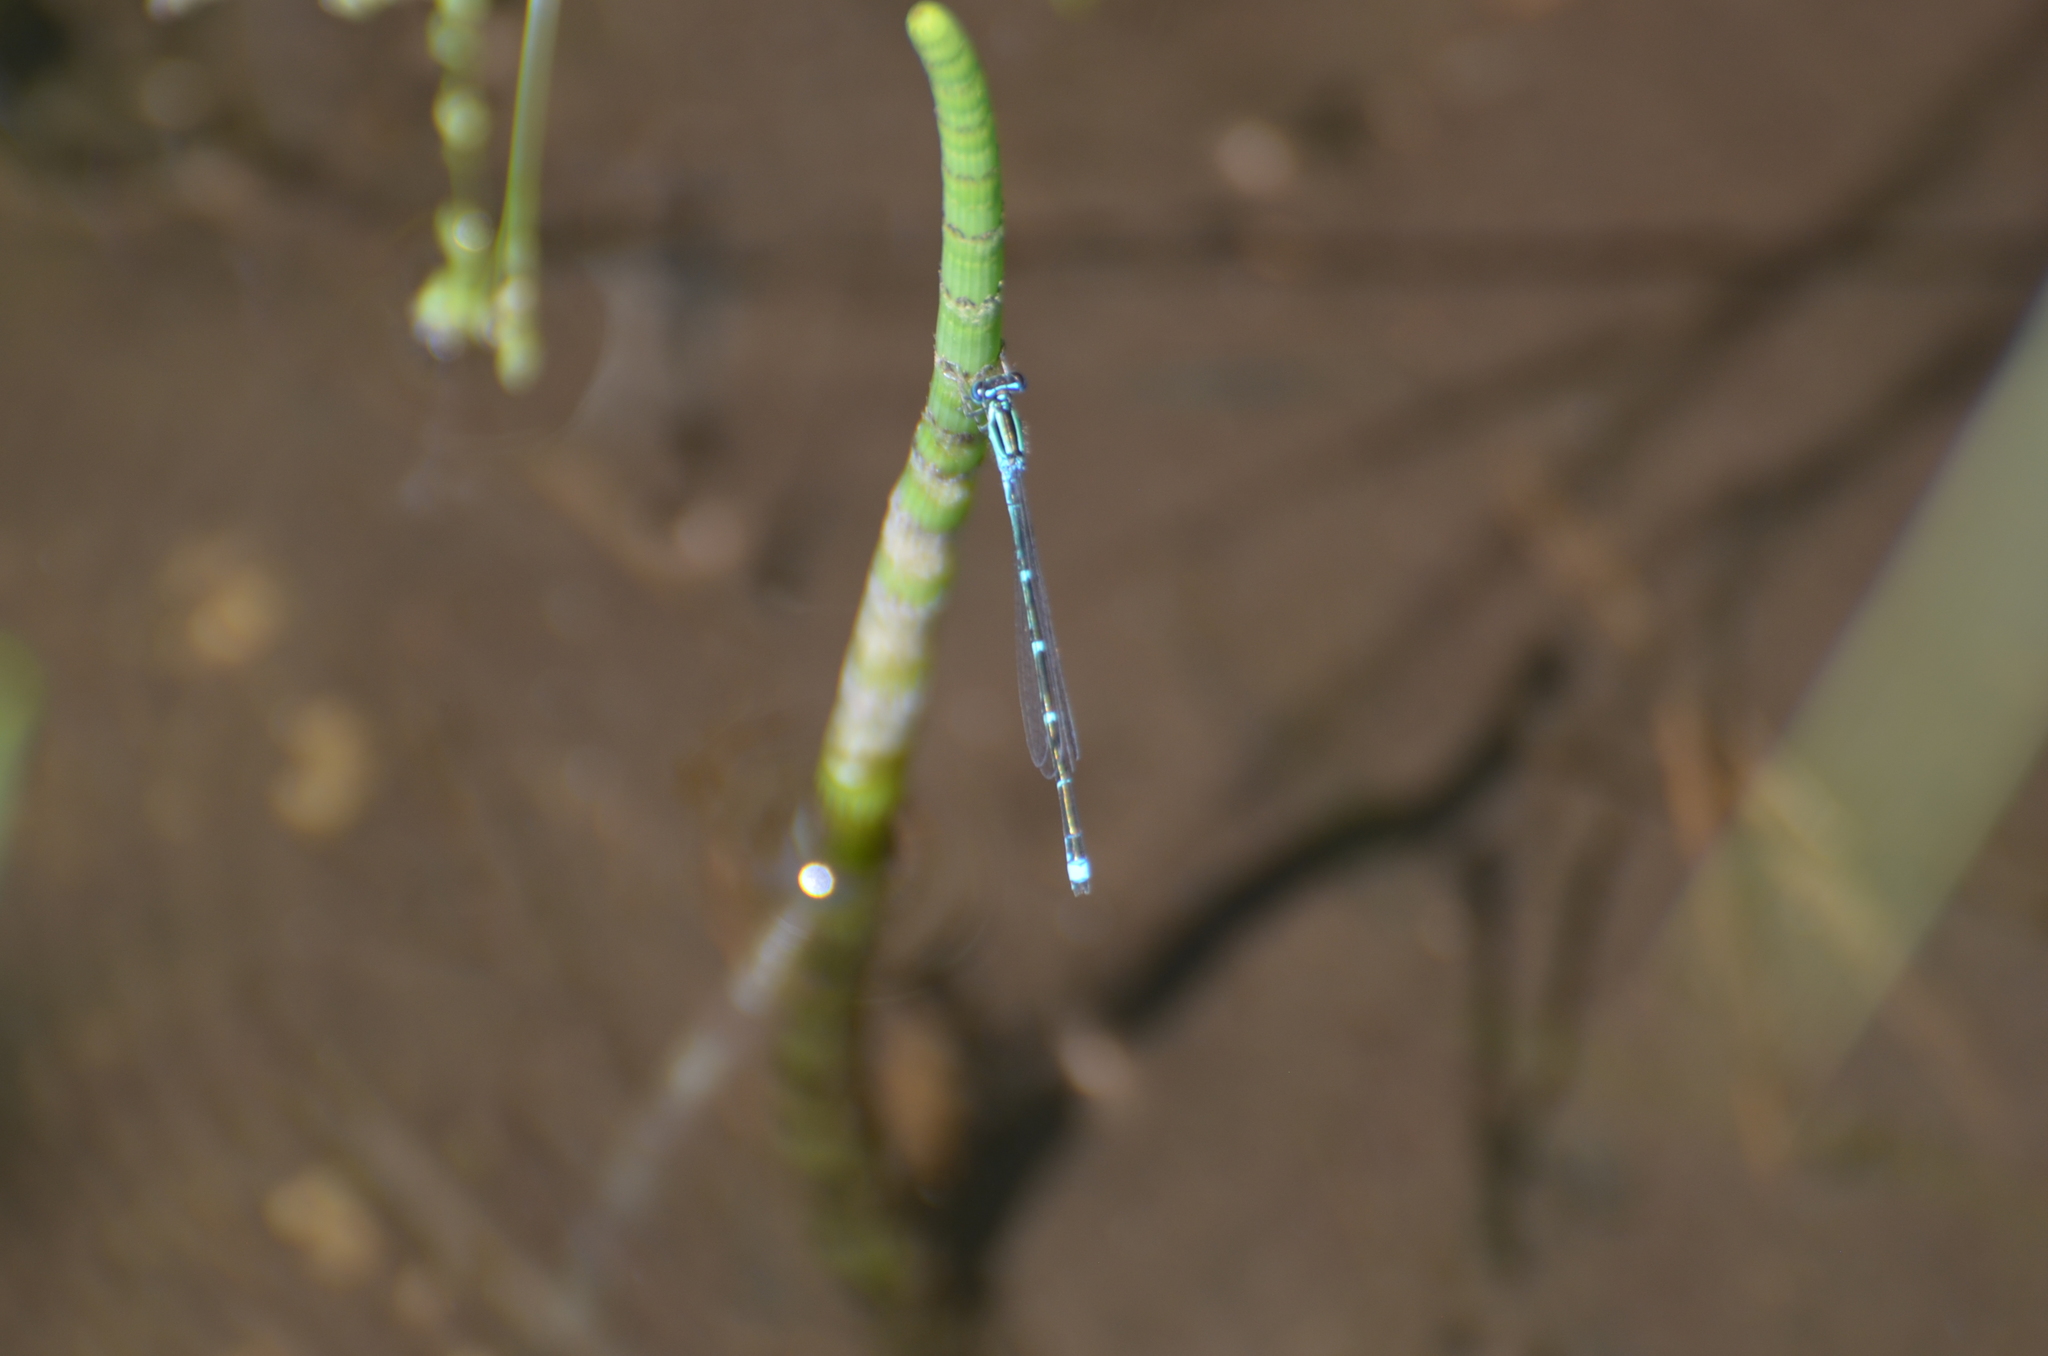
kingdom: Animalia
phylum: Arthropoda
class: Insecta
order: Odonata
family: Coenagrionidae
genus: Enallagma
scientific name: Enallagma exsulans
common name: Stream bluet
